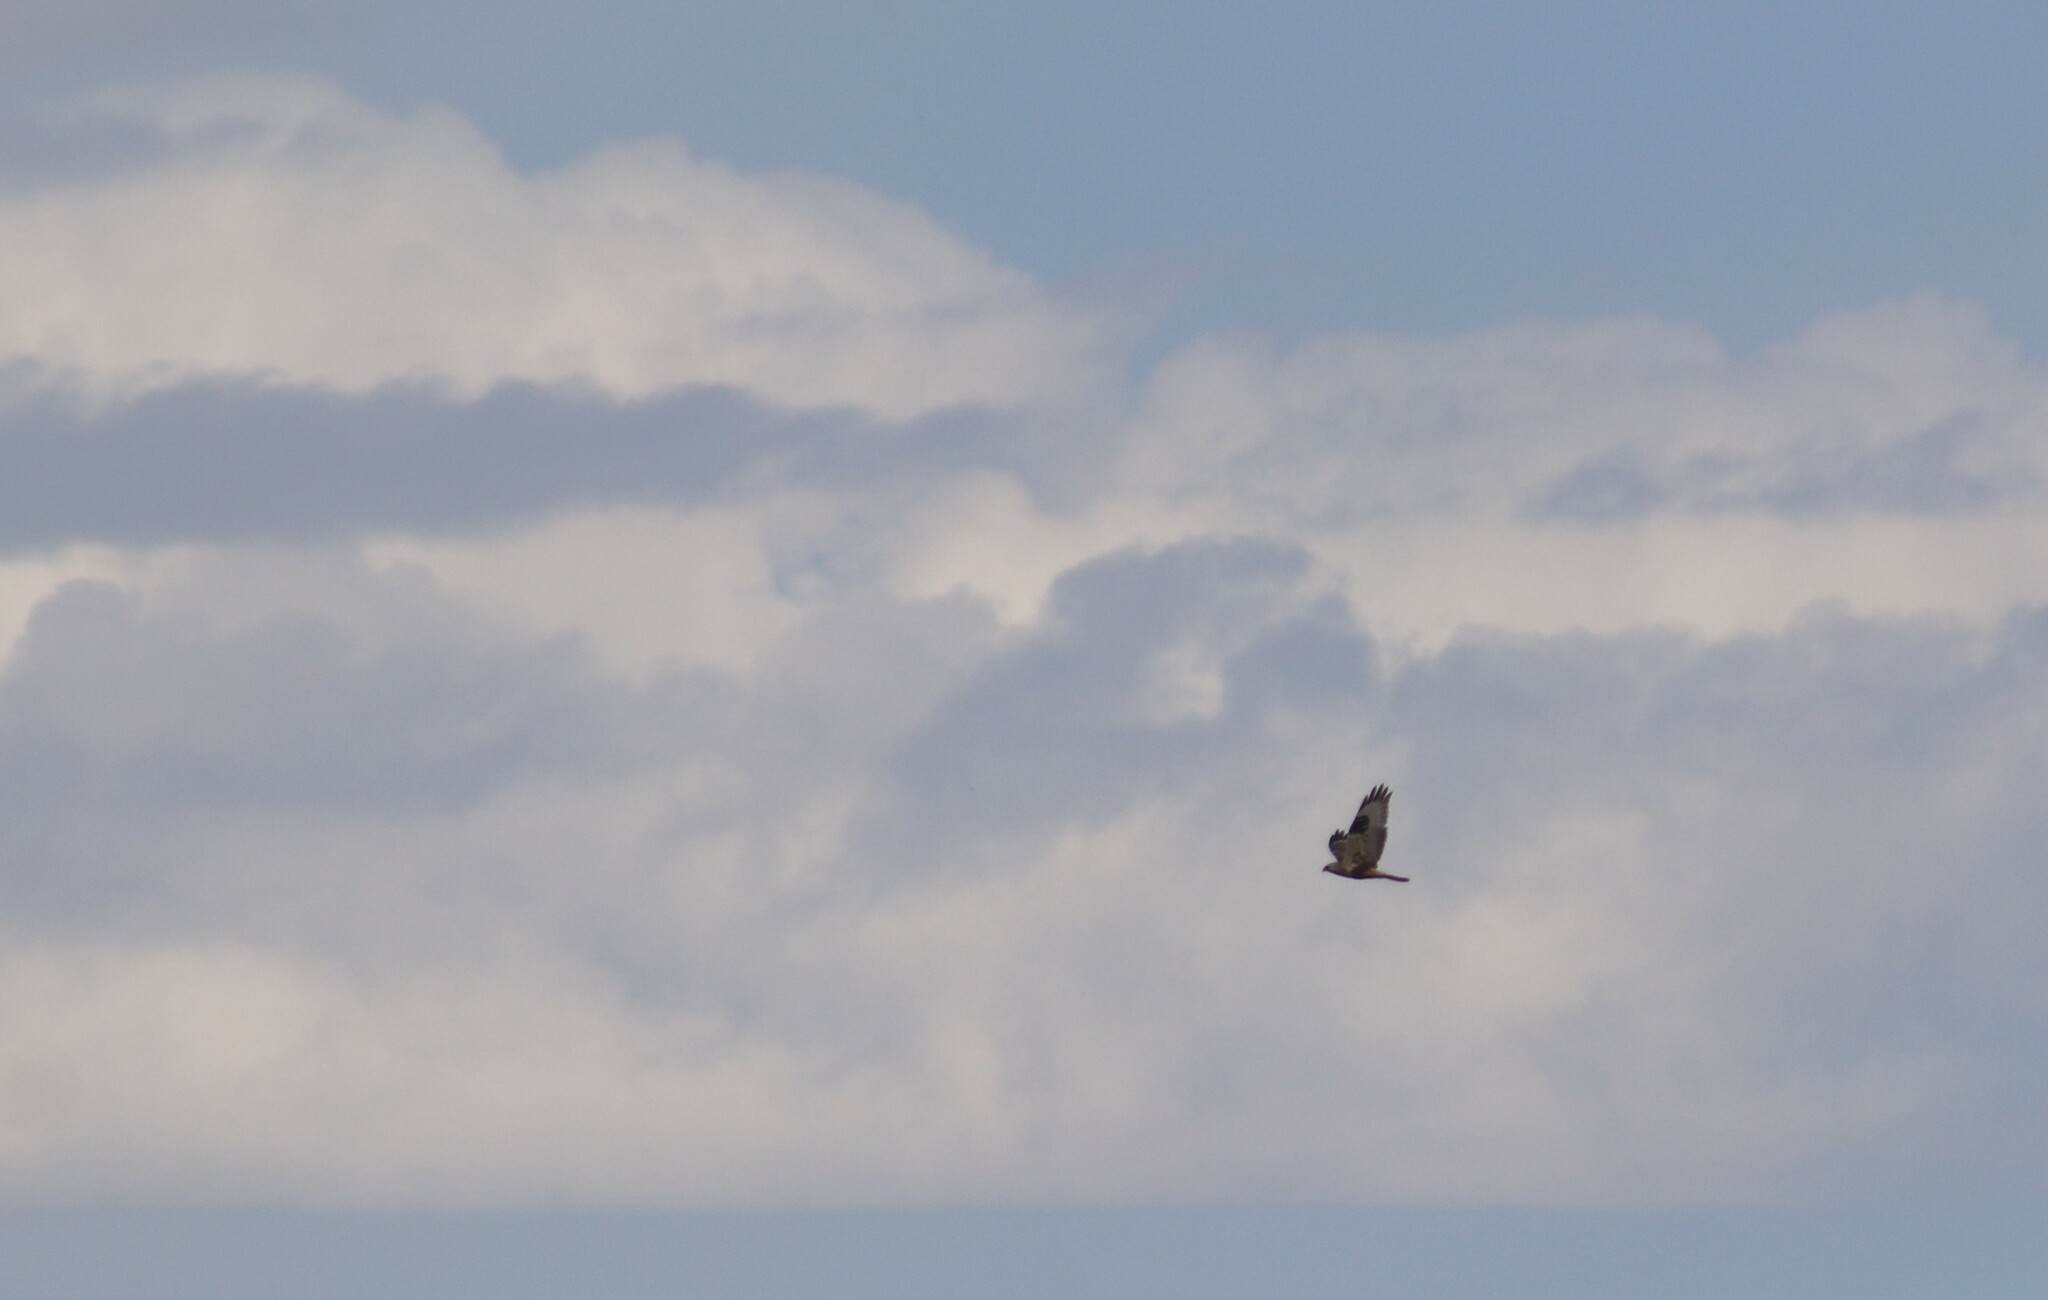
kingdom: Animalia
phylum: Chordata
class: Aves
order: Accipitriformes
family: Accipitridae
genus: Buteo
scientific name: Buteo lagopus
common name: Rough-legged buzzard
